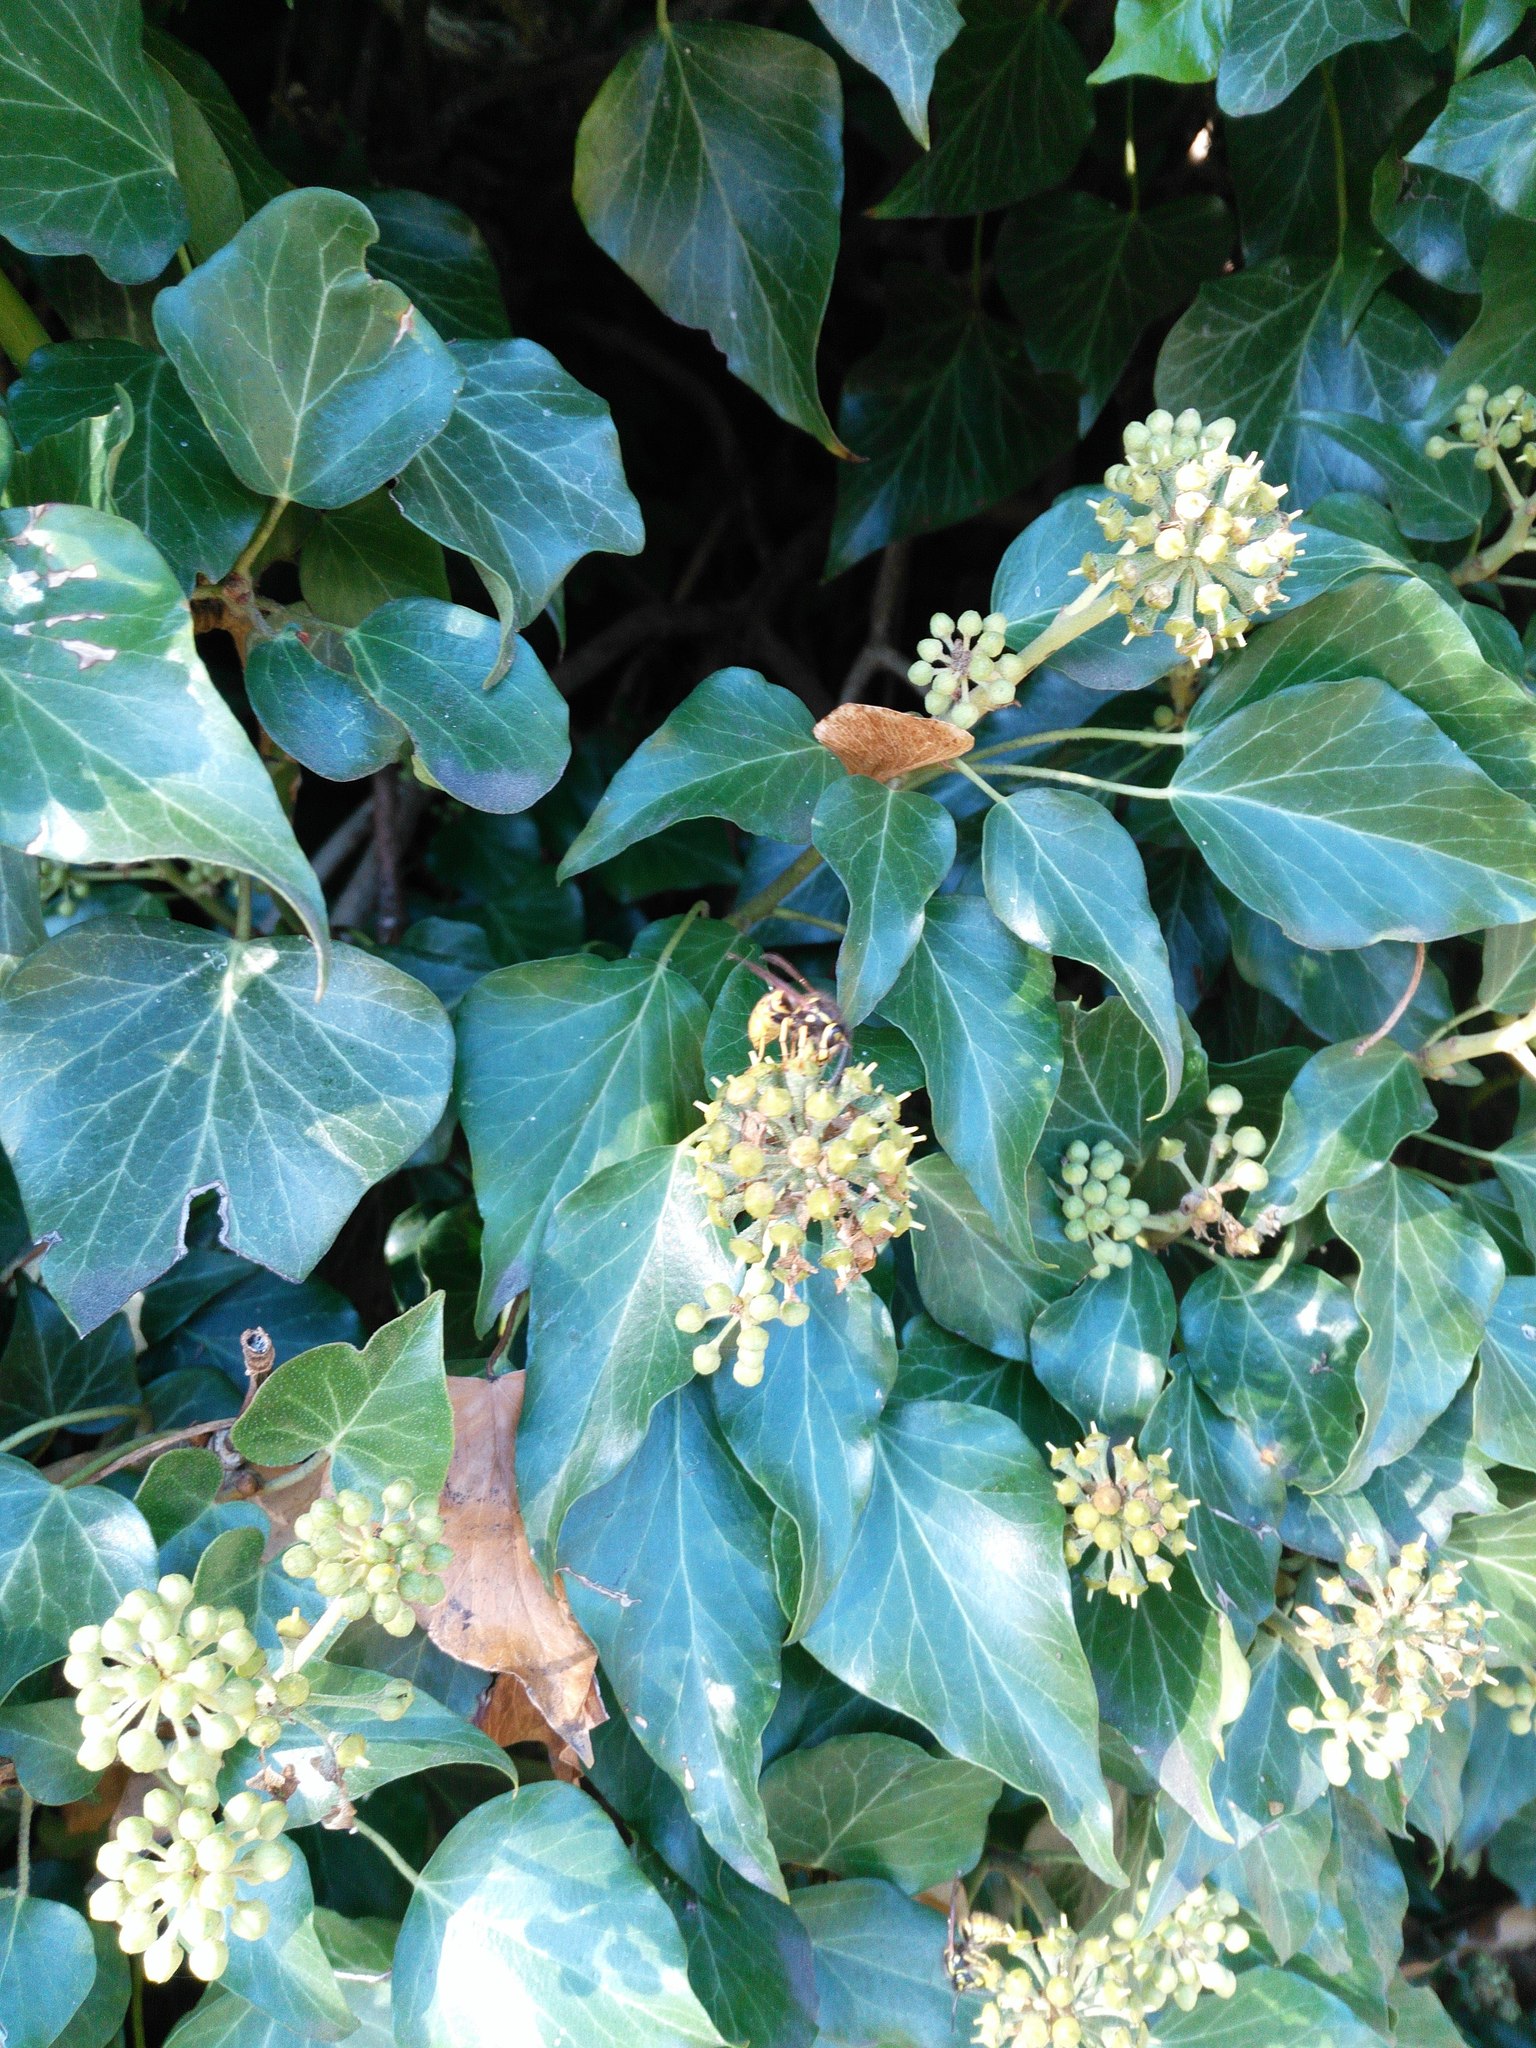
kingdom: Animalia
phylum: Arthropoda
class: Insecta
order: Hymenoptera
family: Vespidae
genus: Vespula
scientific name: Vespula germanica
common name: German wasp
